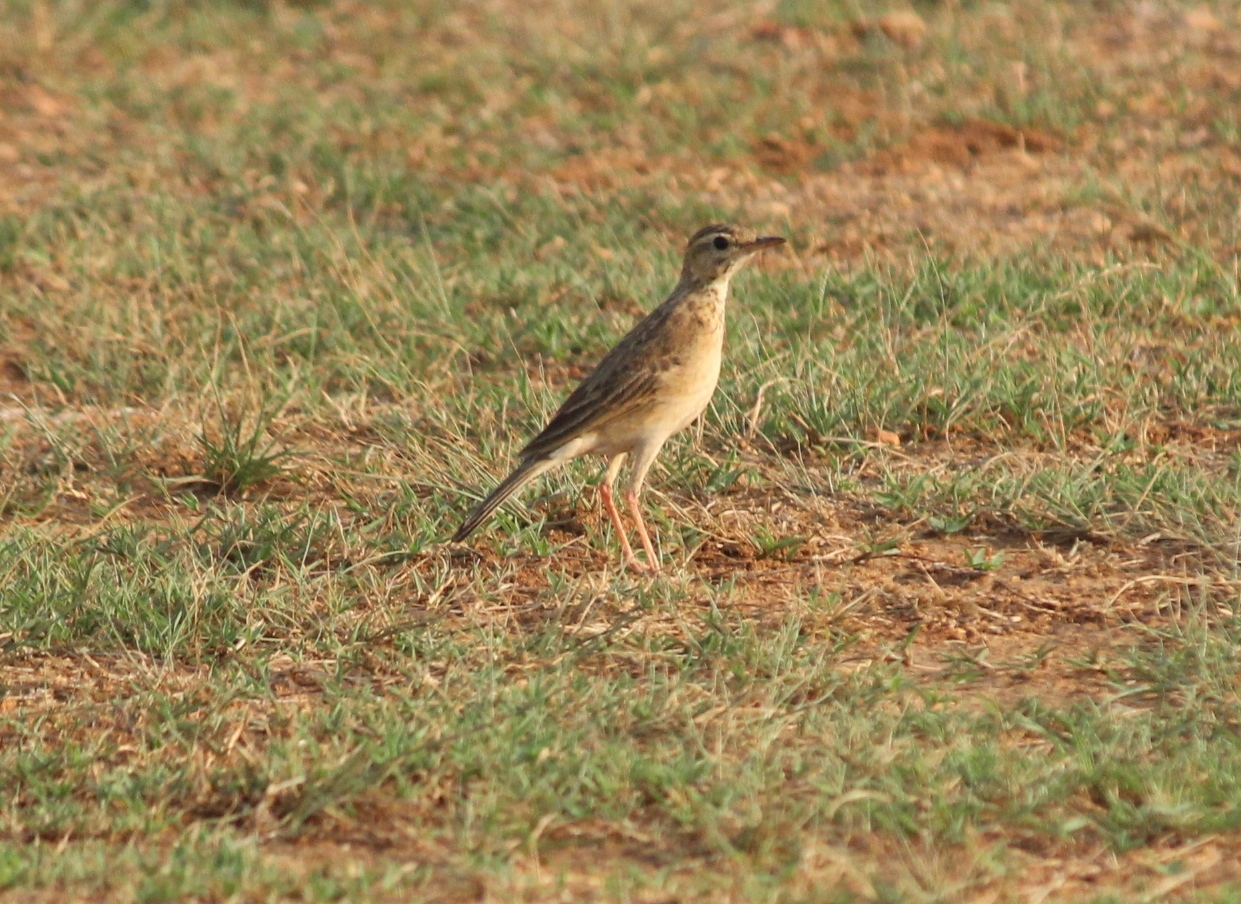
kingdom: Animalia
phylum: Chordata
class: Aves
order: Passeriformes
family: Motacillidae
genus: Anthus
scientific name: Anthus rufulus
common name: Paddyfield pipit
